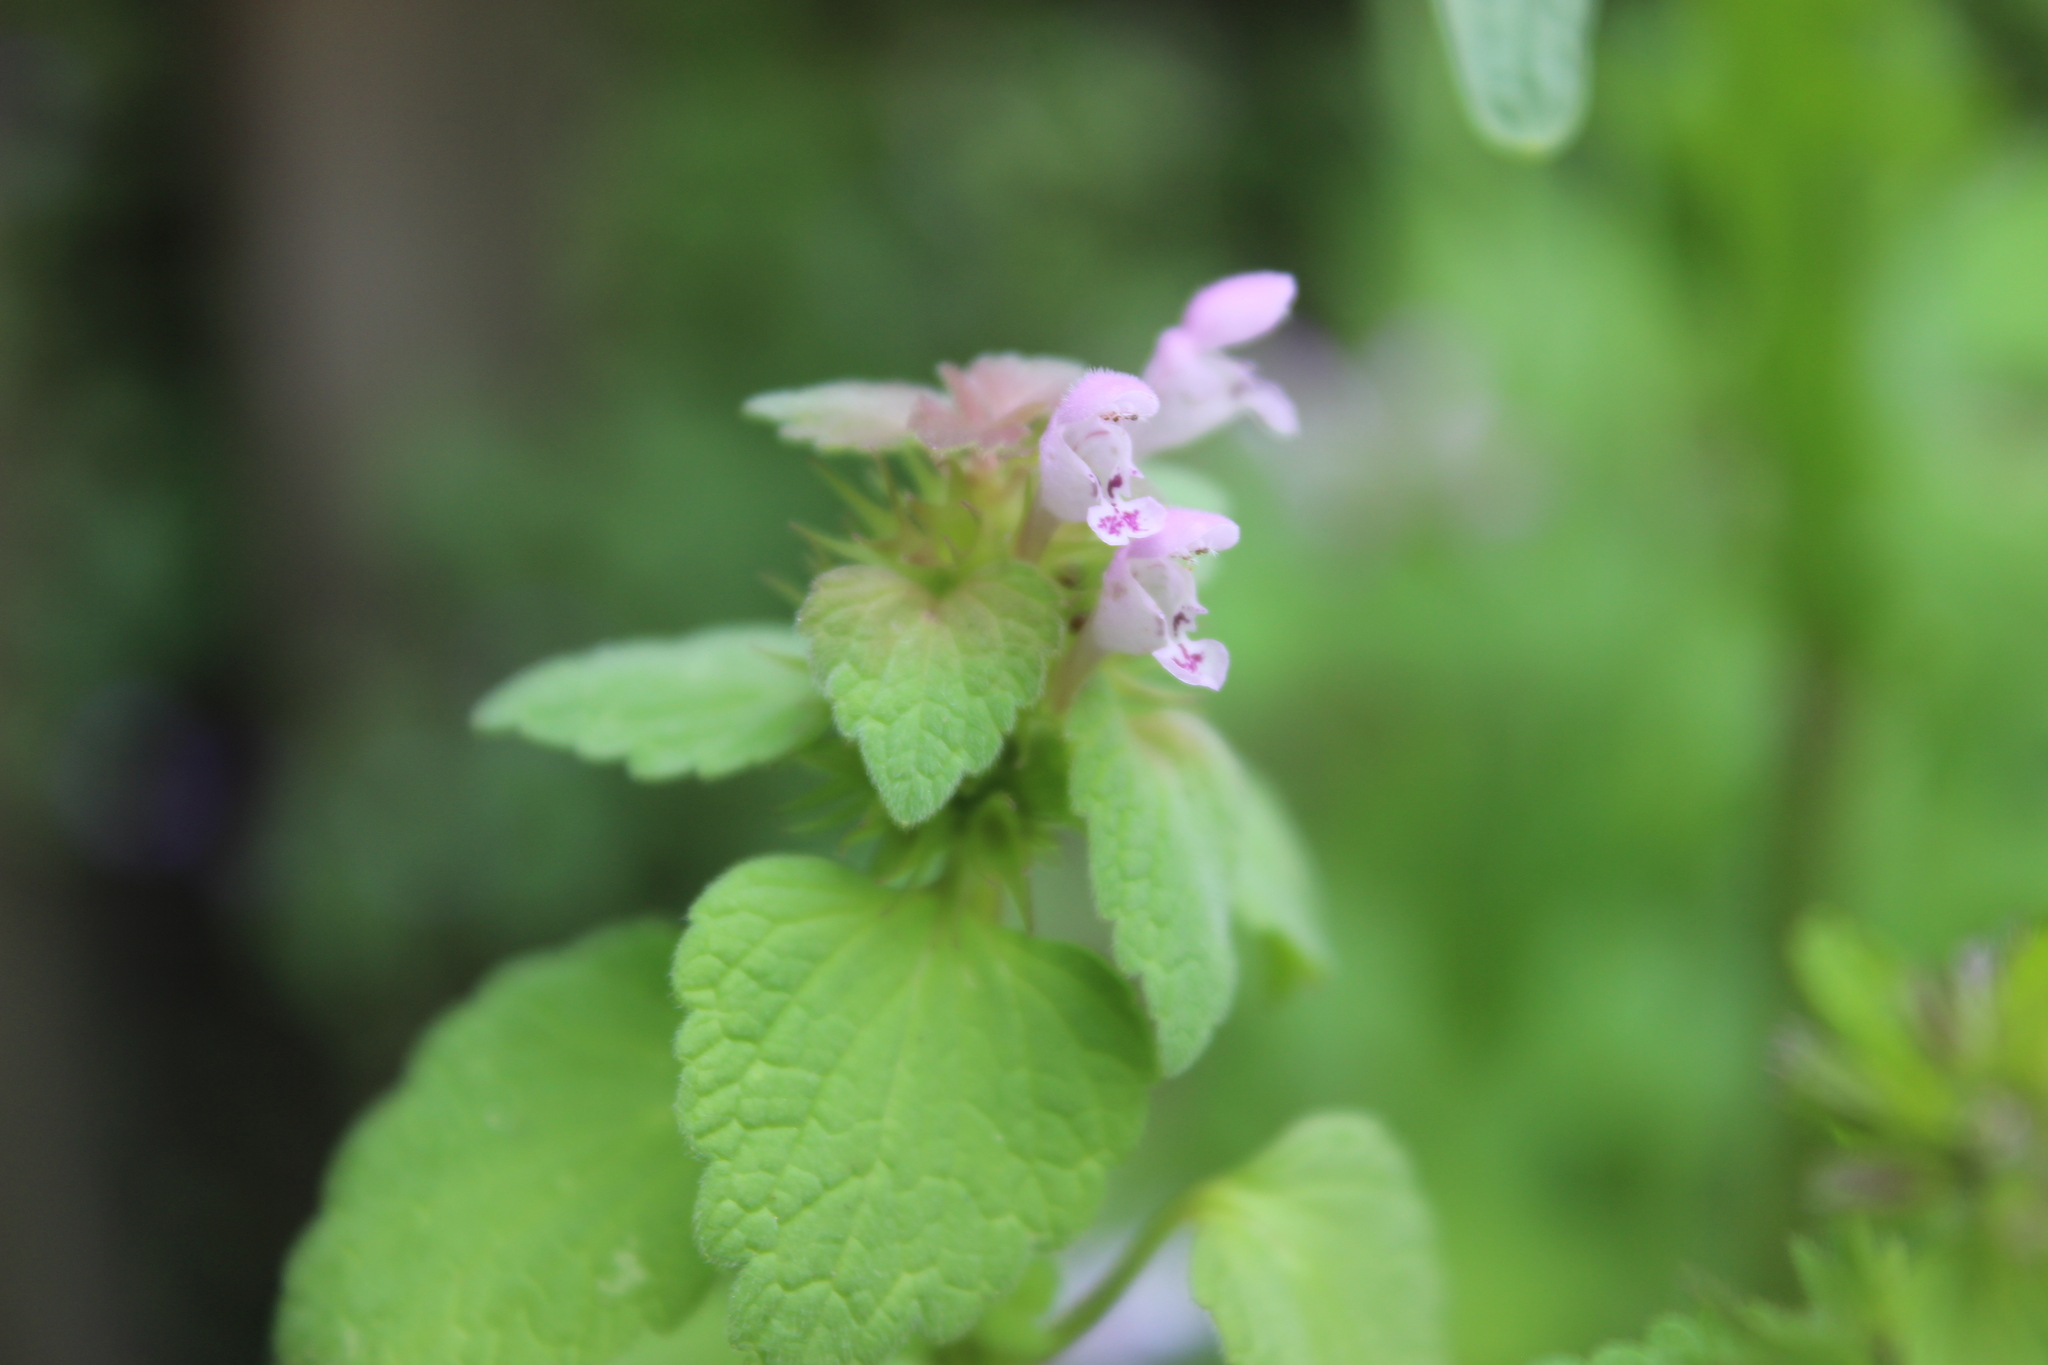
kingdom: Plantae
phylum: Tracheophyta
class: Magnoliopsida
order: Lamiales
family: Lamiaceae
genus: Lamium
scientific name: Lamium purpureum
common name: Red dead-nettle
